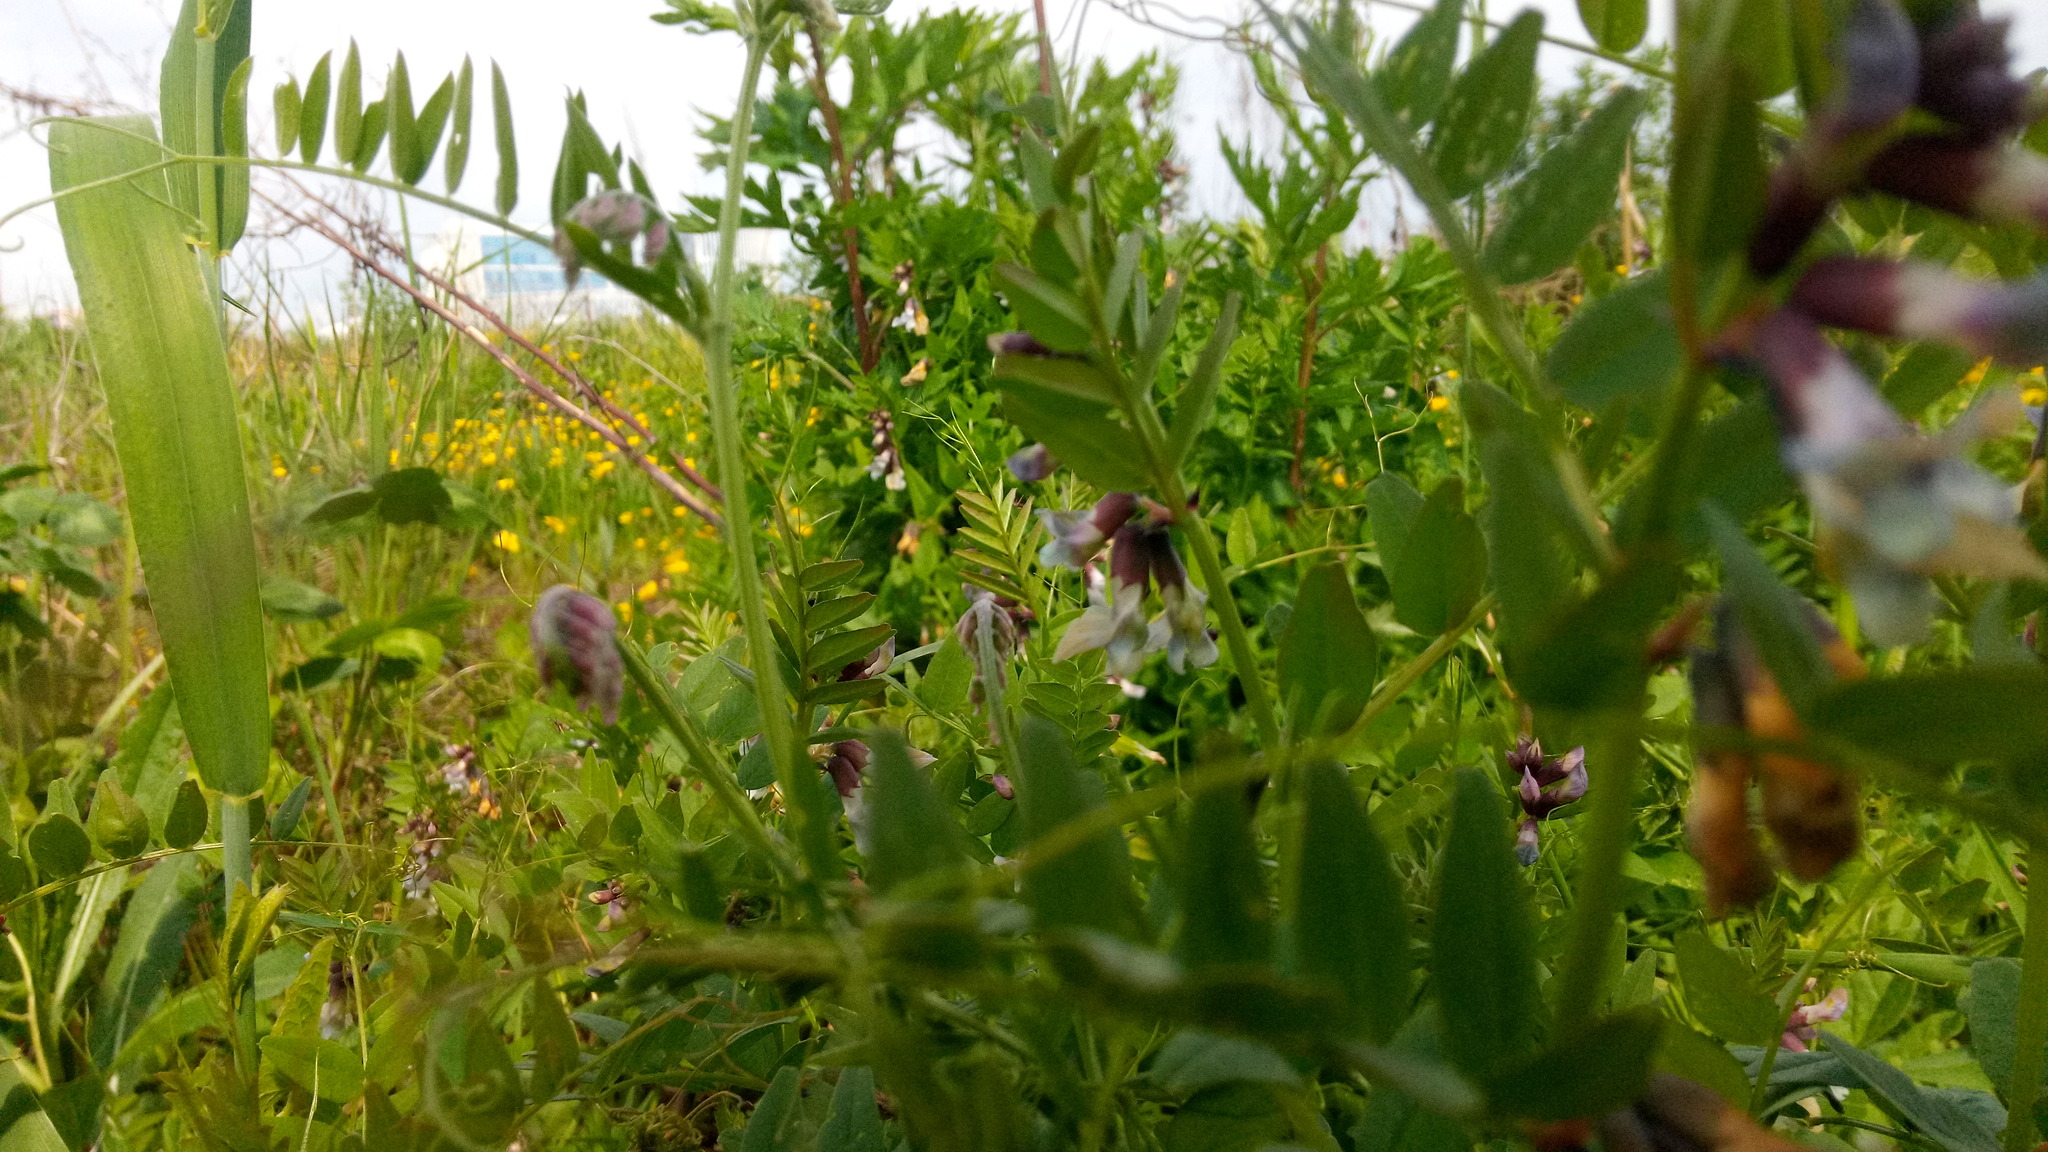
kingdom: Plantae
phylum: Tracheophyta
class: Magnoliopsida
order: Fabales
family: Fabaceae
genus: Vicia
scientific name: Vicia sepium
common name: Bush vetch
